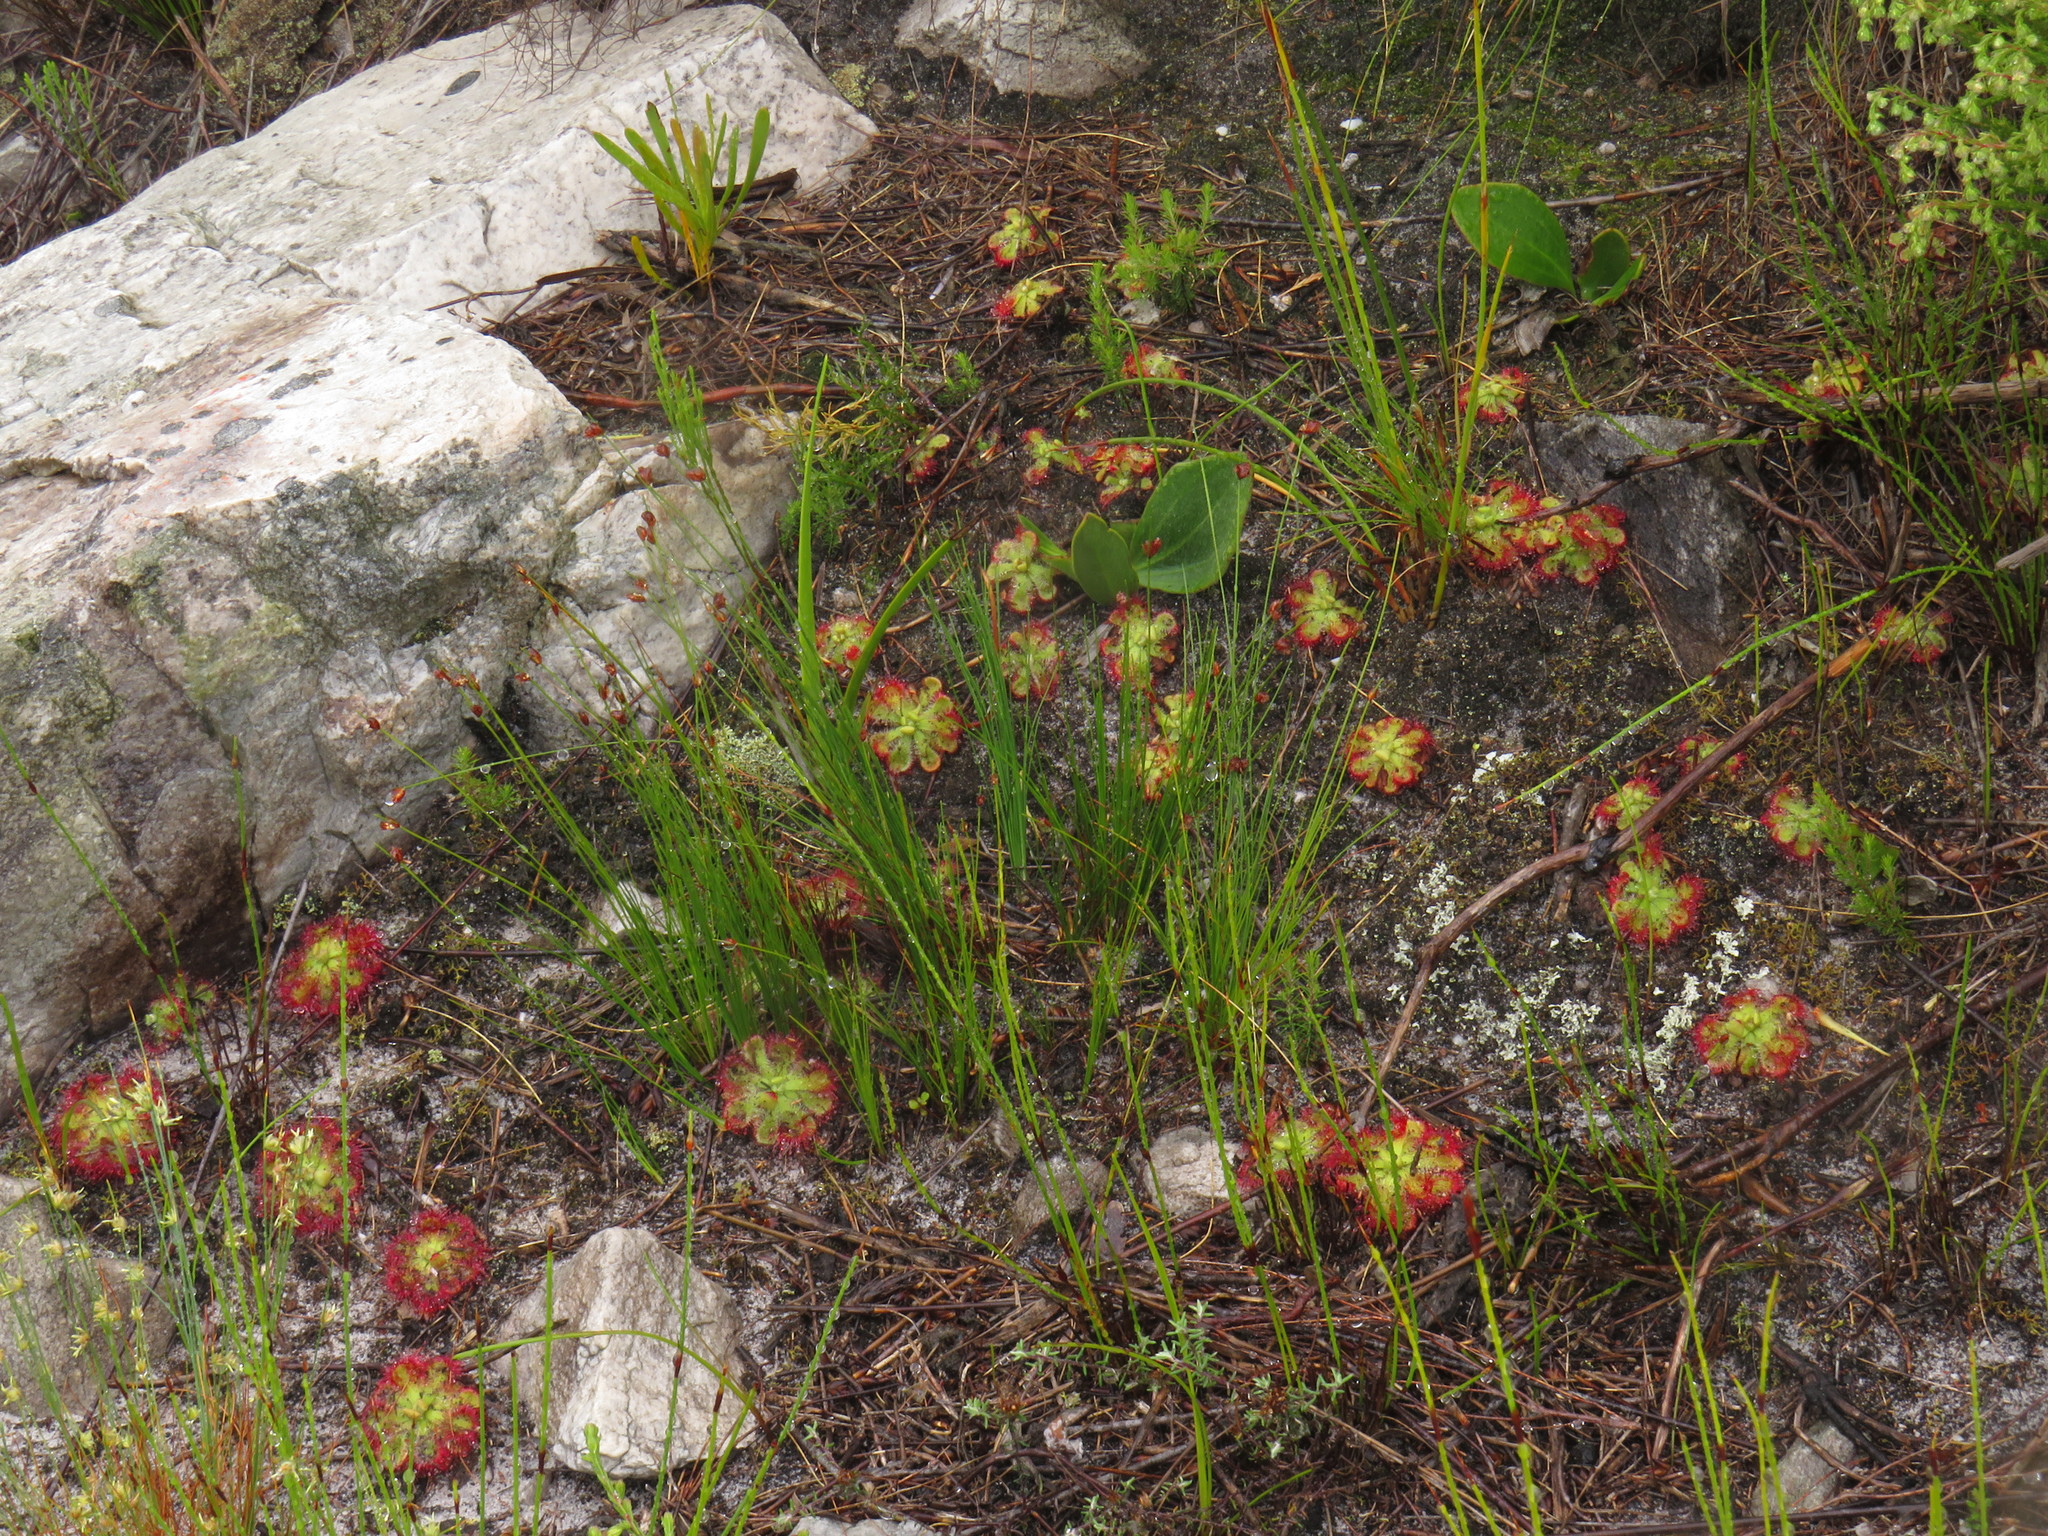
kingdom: Plantae
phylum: Tracheophyta
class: Magnoliopsida
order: Caryophyllales
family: Droseraceae
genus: Drosera
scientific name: Drosera xerophila
